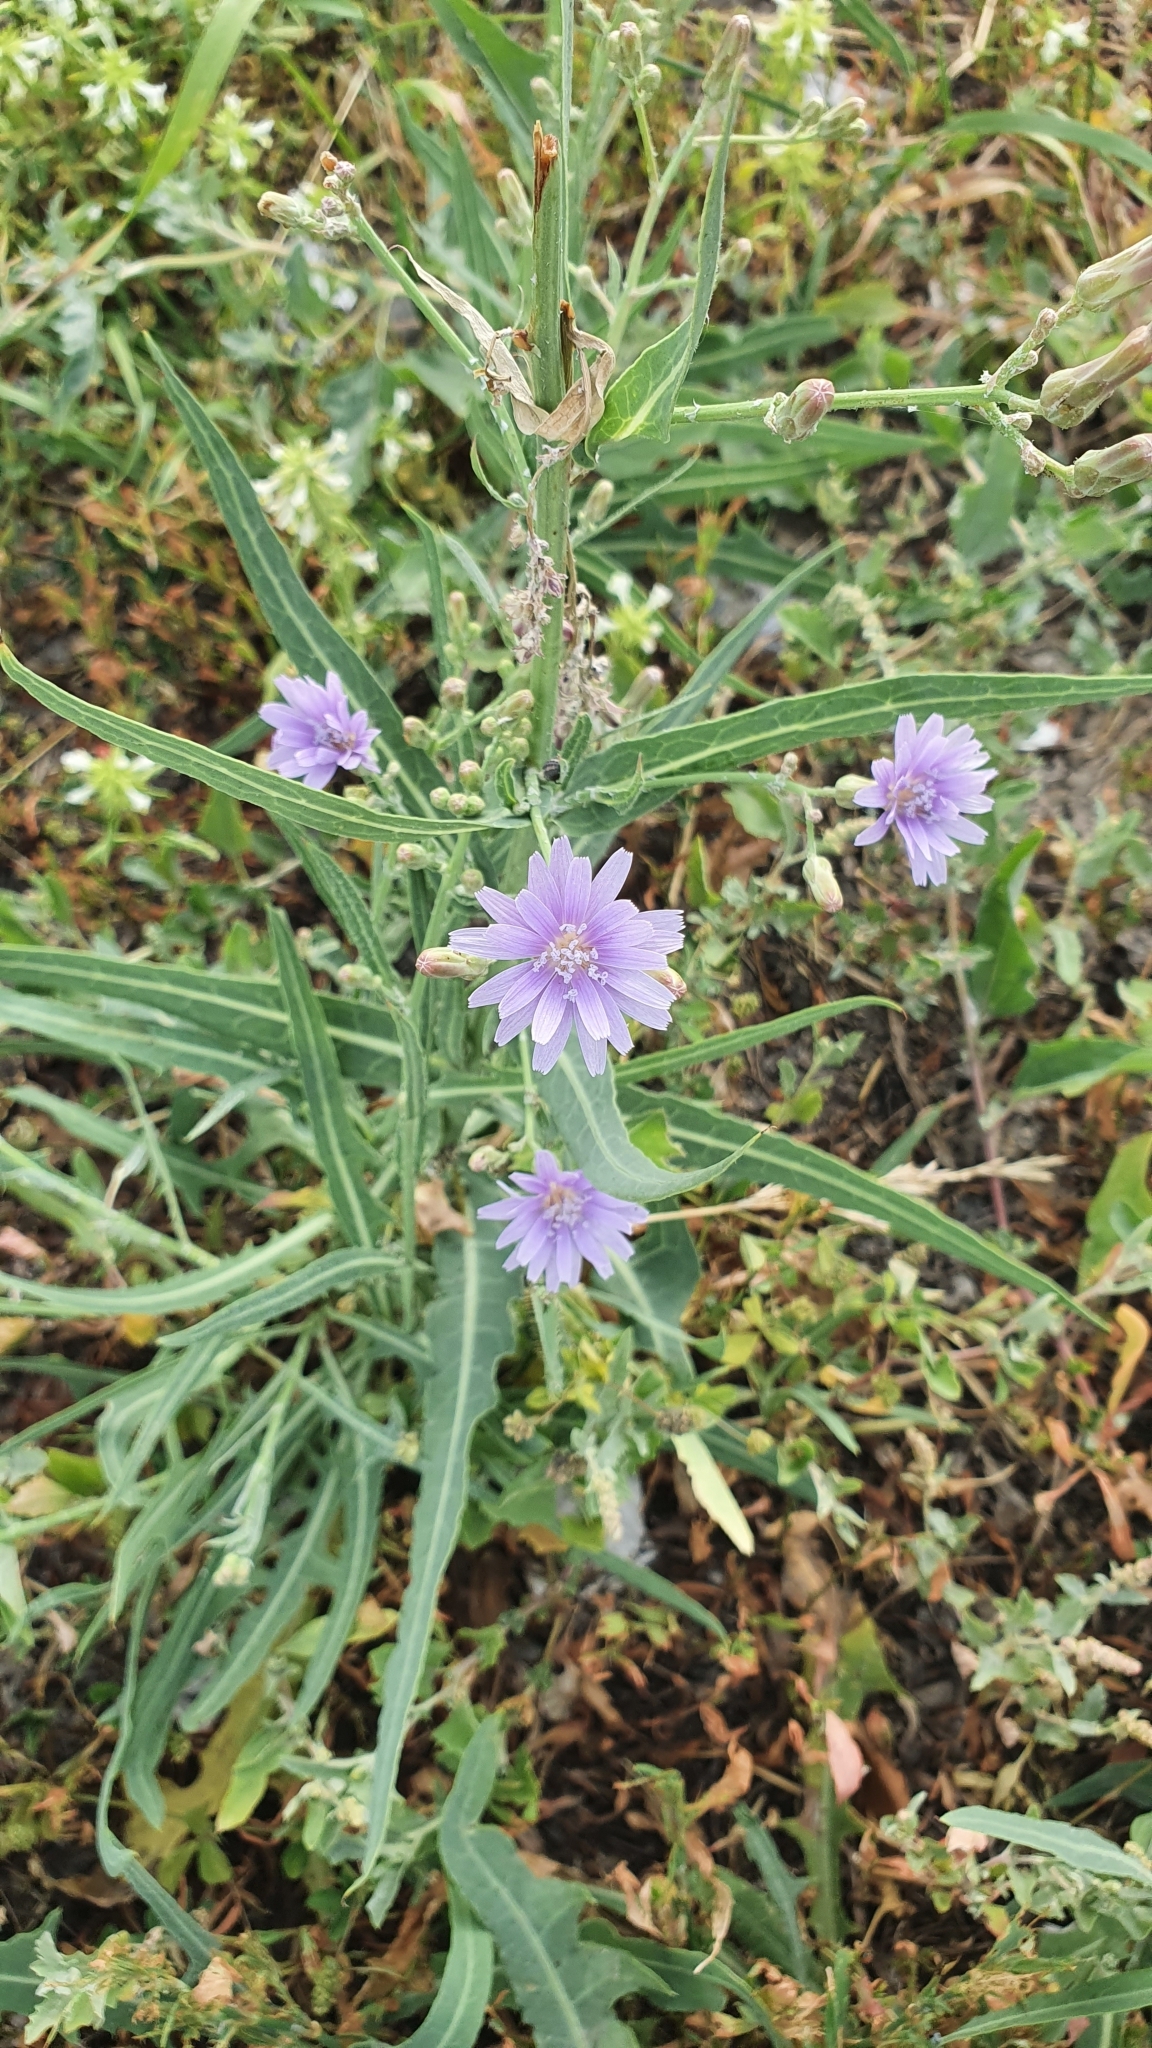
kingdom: Plantae
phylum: Tracheophyta
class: Magnoliopsida
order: Asterales
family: Asteraceae
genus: Lactuca
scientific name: Lactuca tatarica
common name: Blue lettuce
